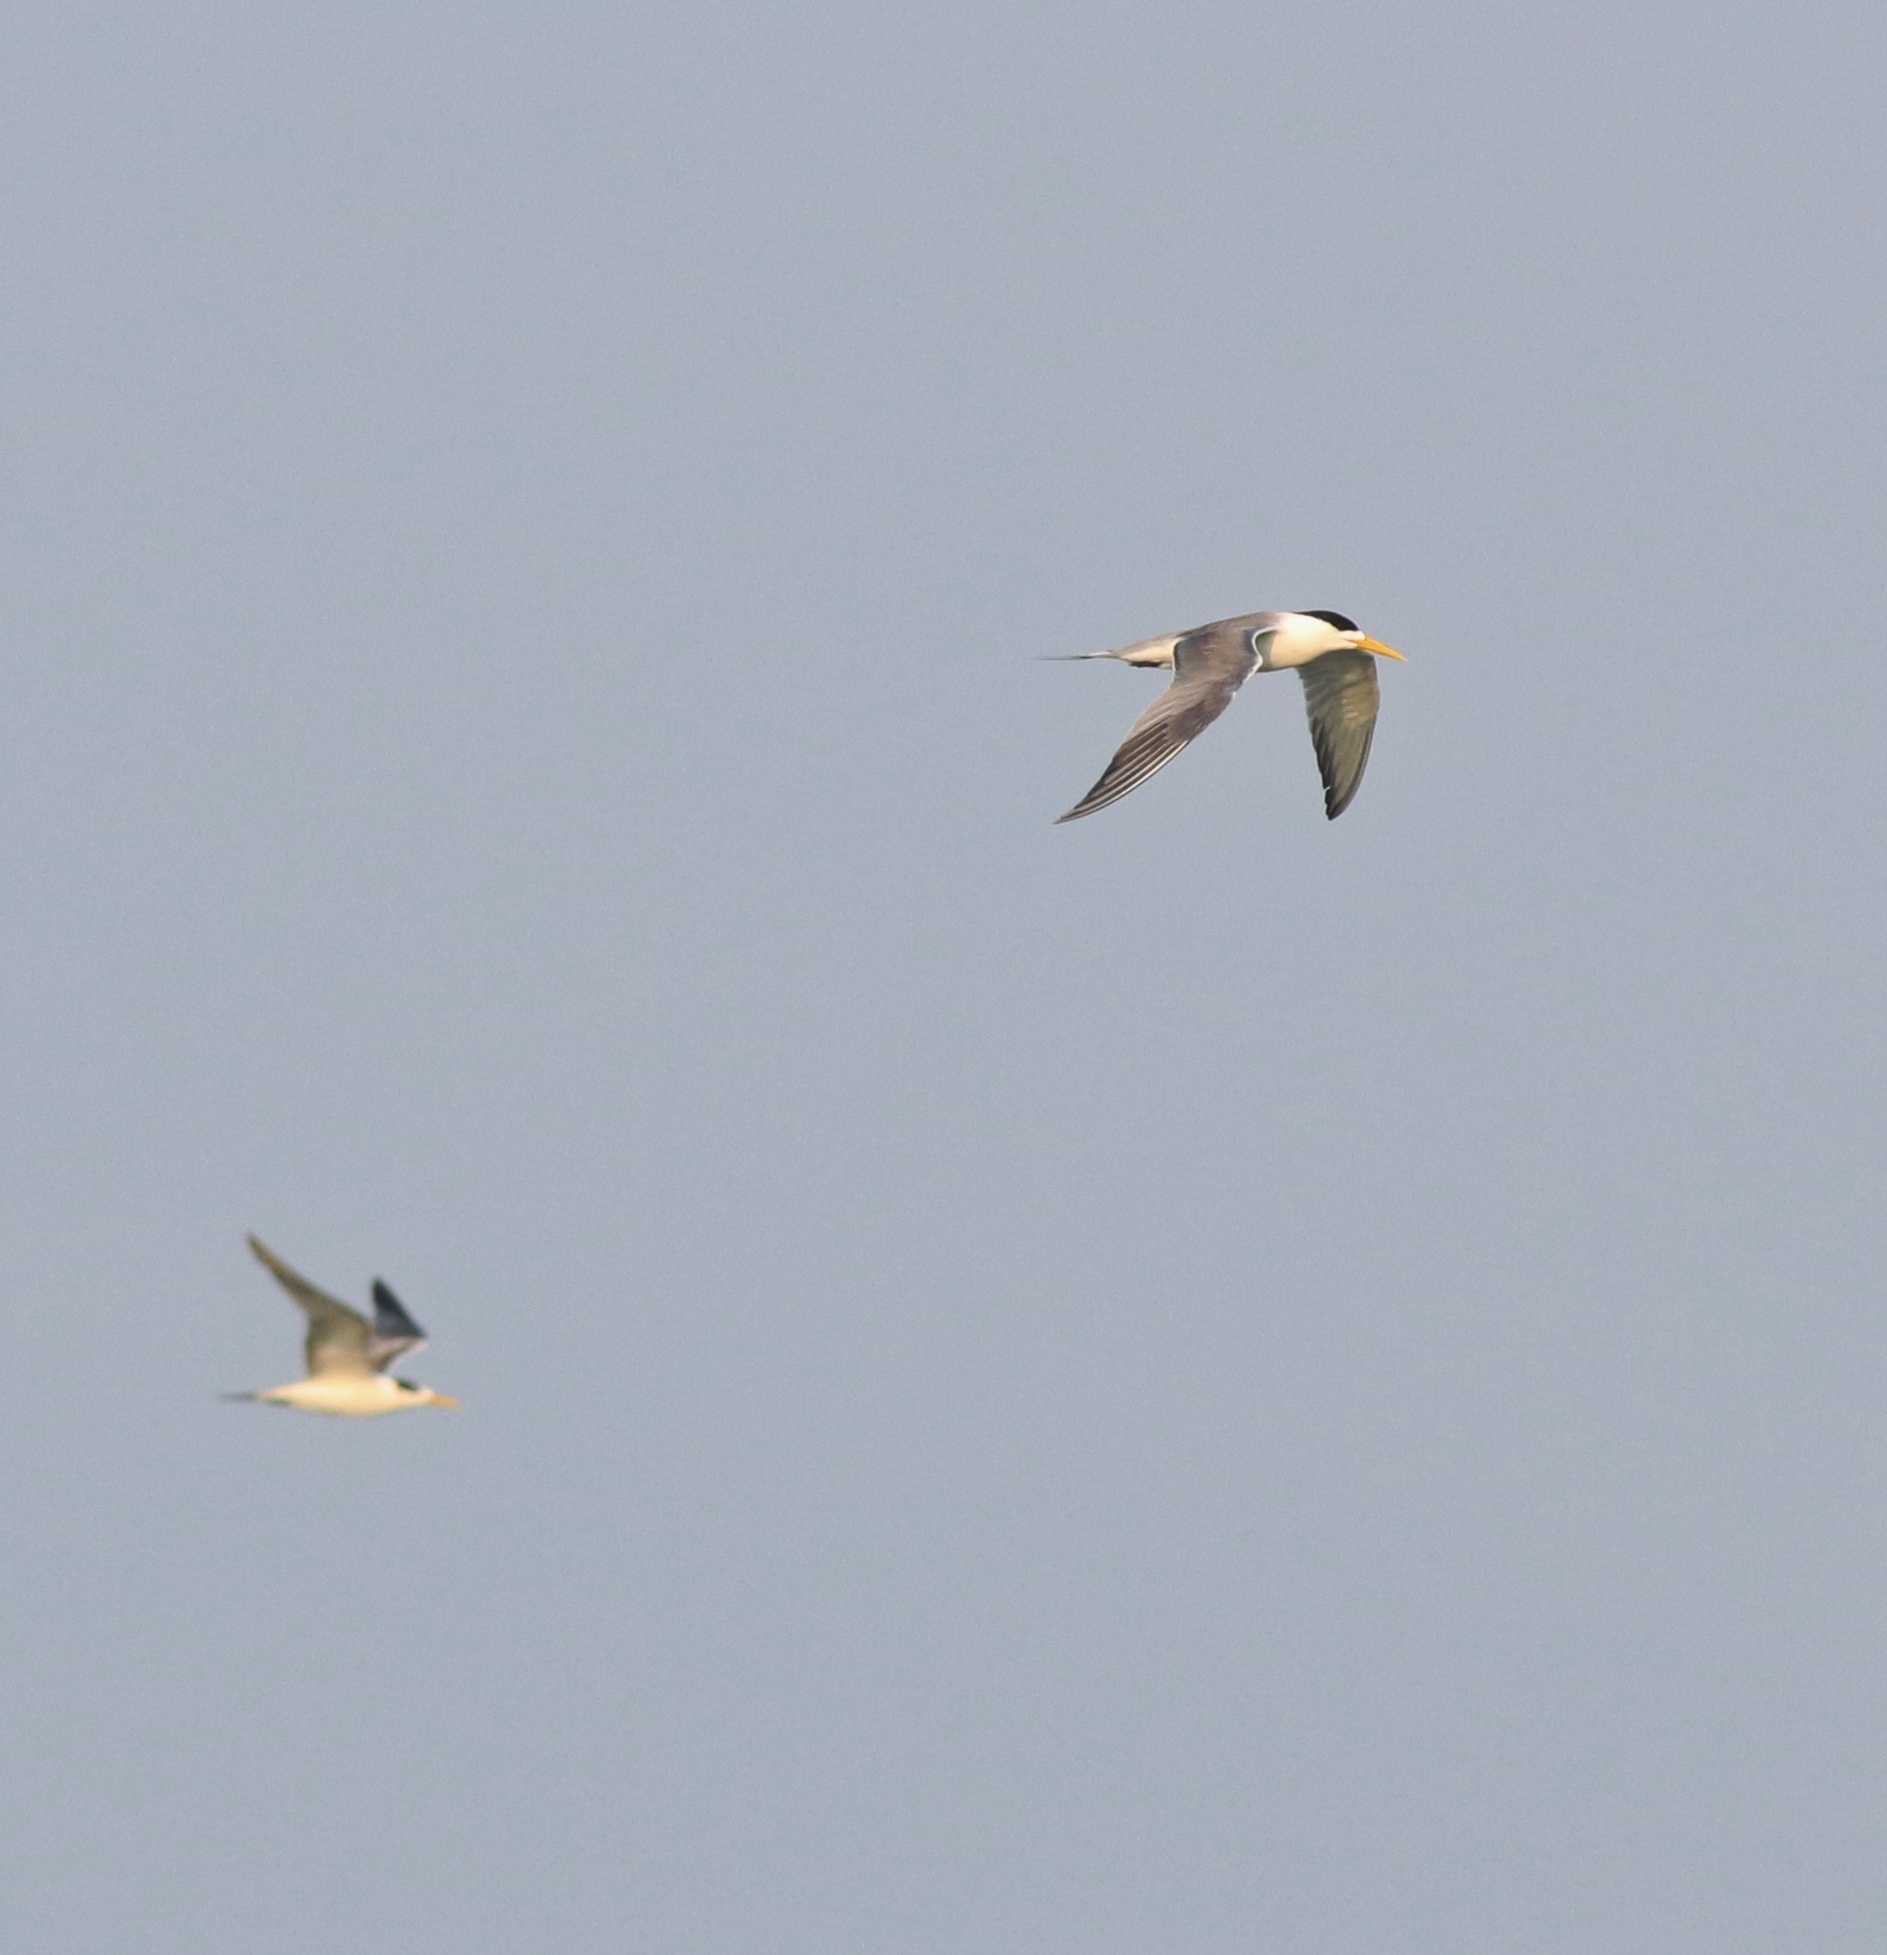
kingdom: Animalia
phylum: Chordata
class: Aves
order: Charadriiformes
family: Laridae
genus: Thalasseus
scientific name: Thalasseus bergii
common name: Greater crested tern
